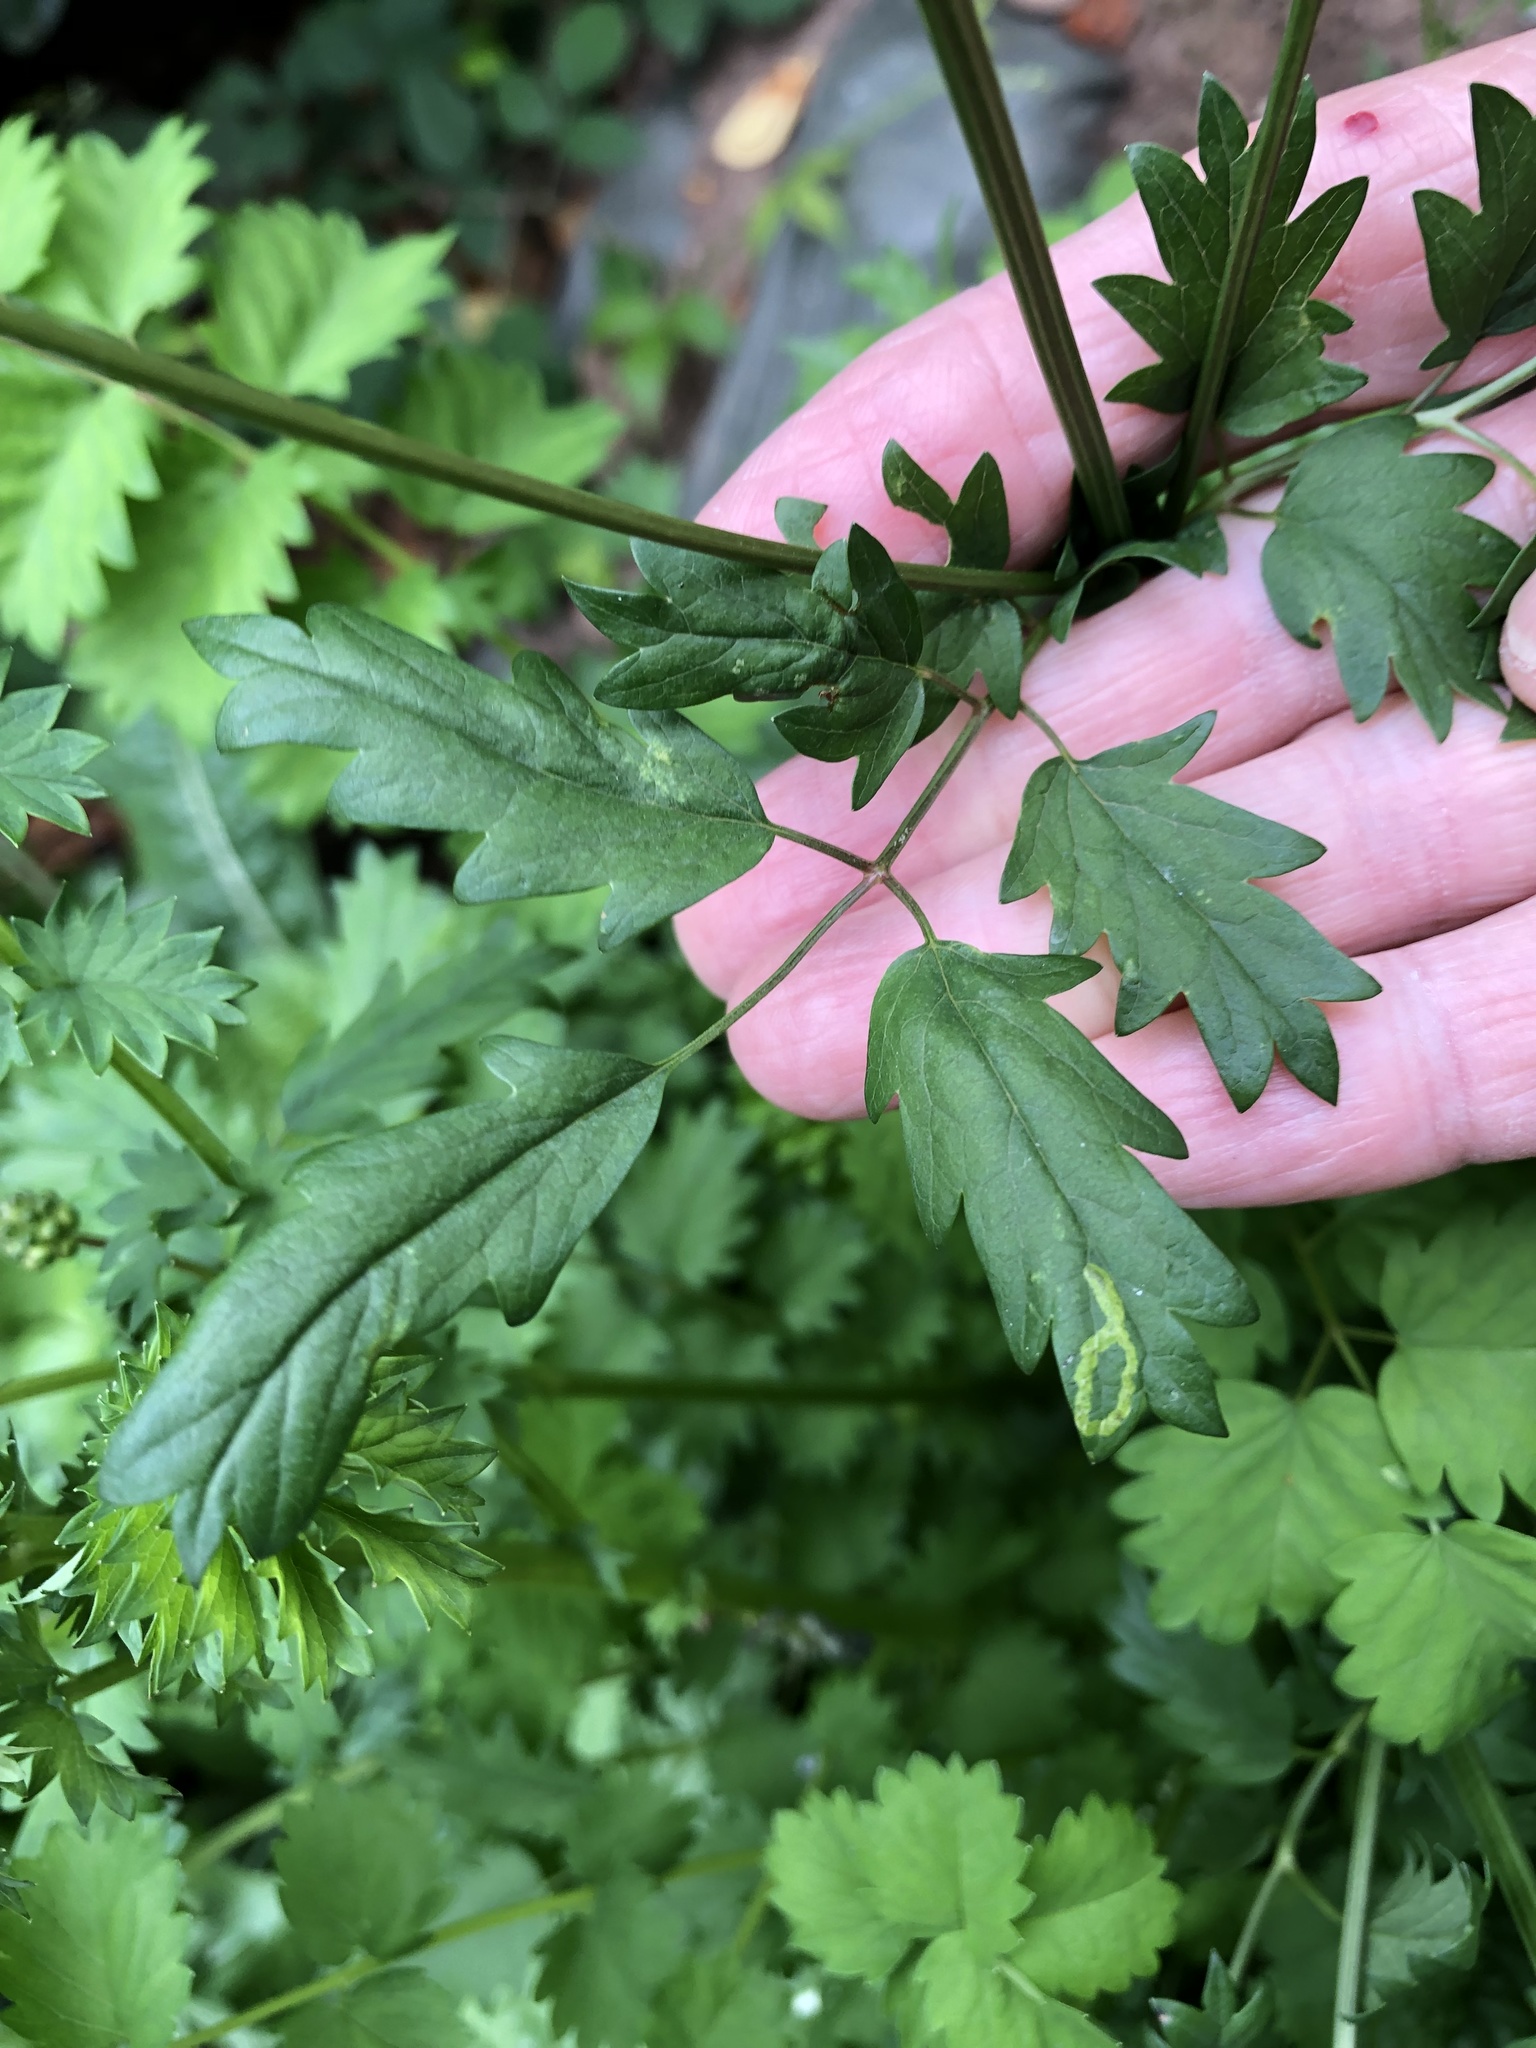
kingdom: Plantae
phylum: Tracheophyta
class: Magnoliopsida
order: Rosales
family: Rosaceae
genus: Poterium
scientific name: Poterium sanguisorba
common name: Salad burnet
